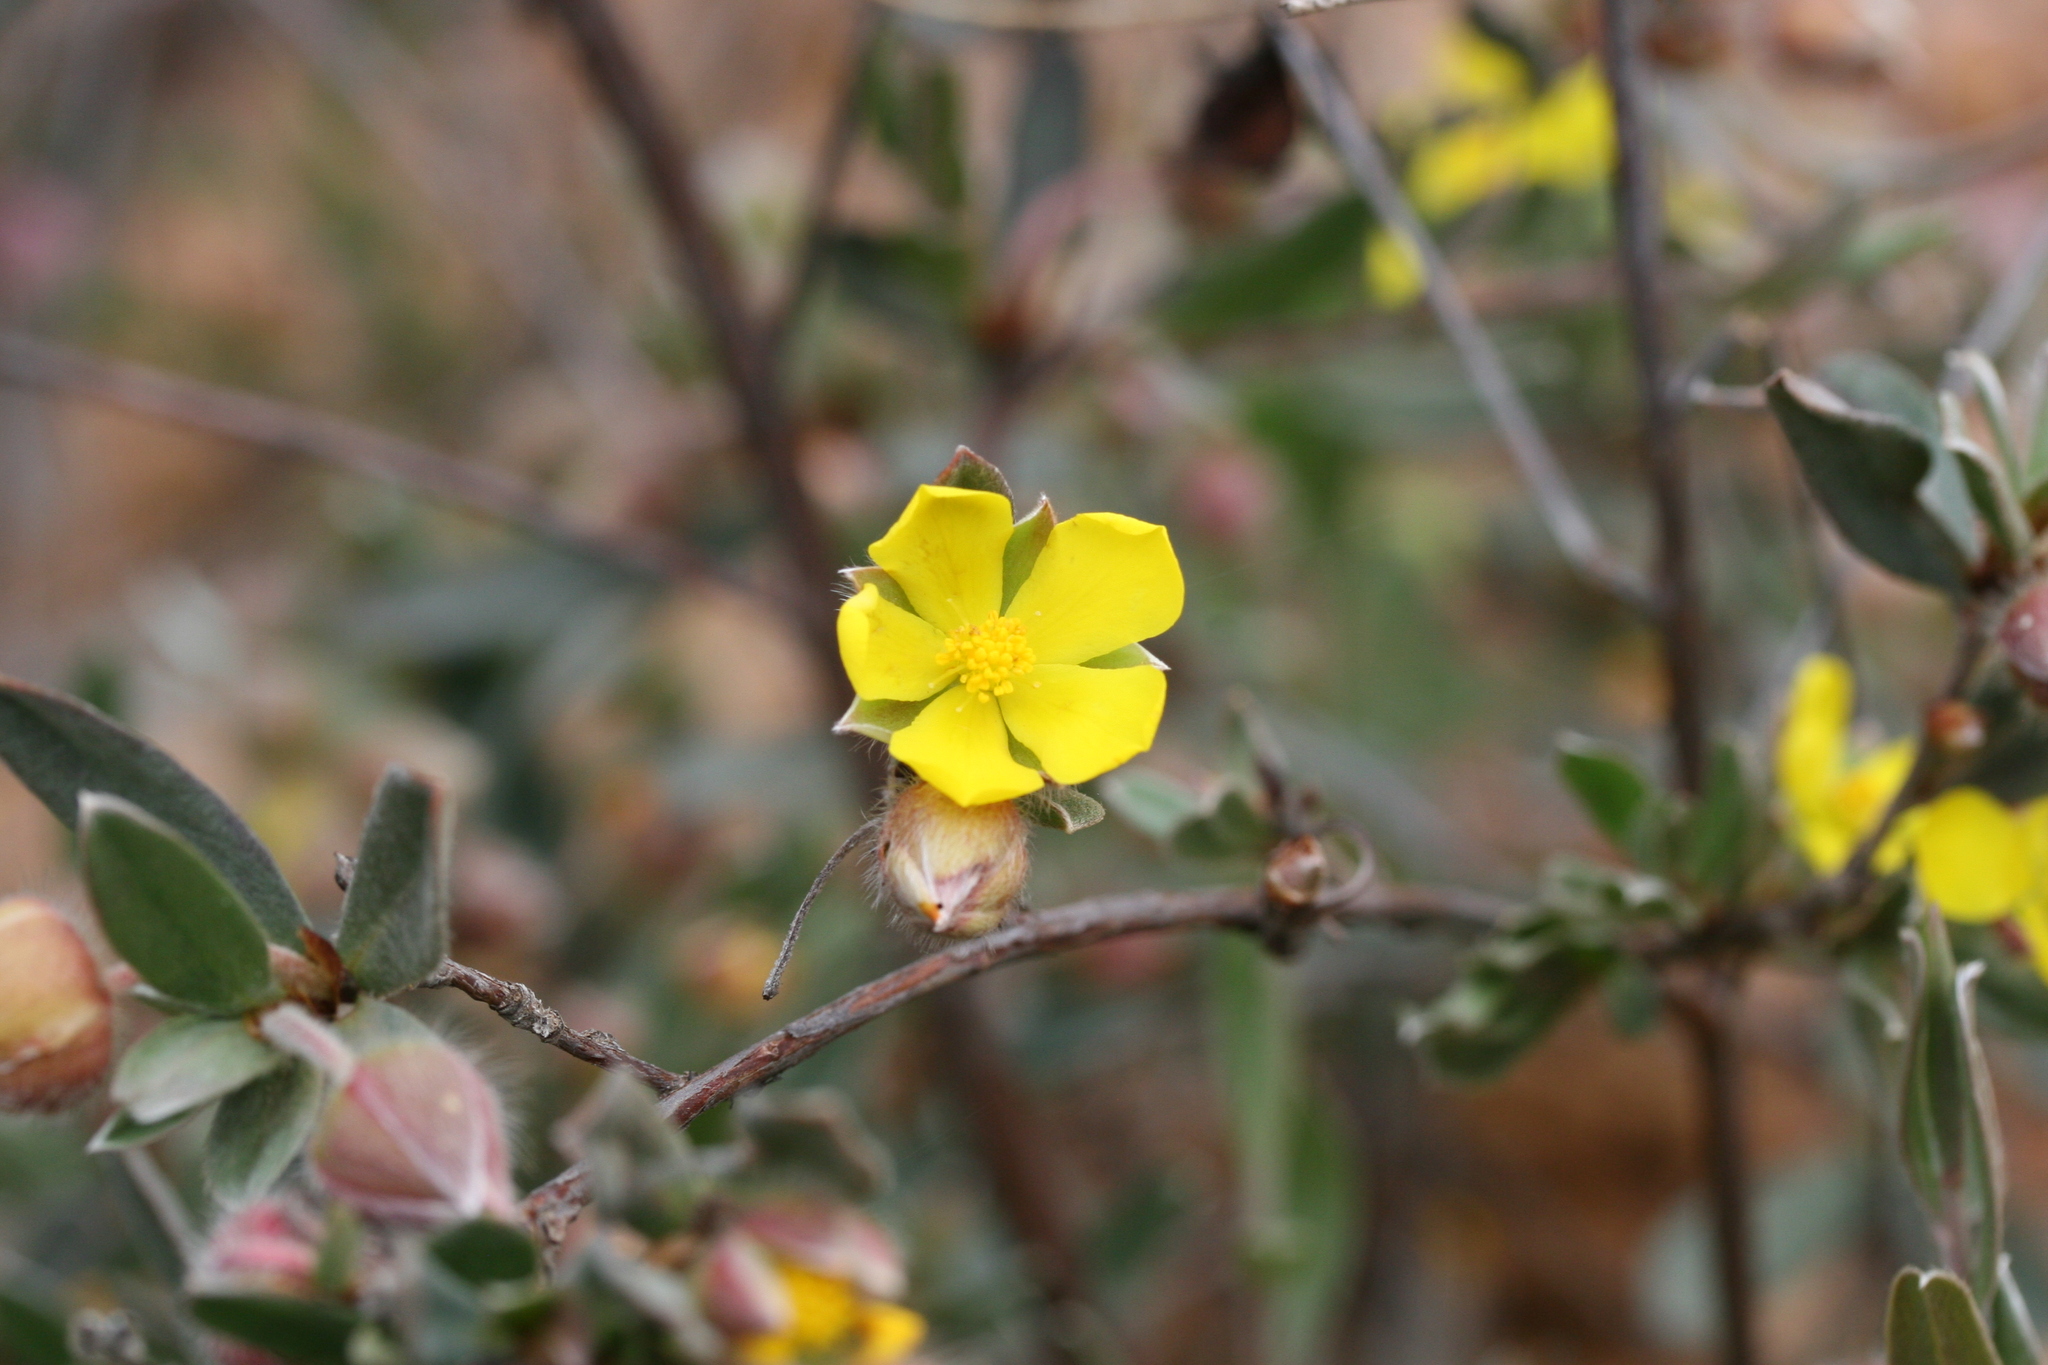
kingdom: Plantae
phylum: Tracheophyta
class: Magnoliopsida
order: Dilleniales
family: Dilleniaceae
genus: Hibbertia
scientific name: Hibbertia potentilliflora
